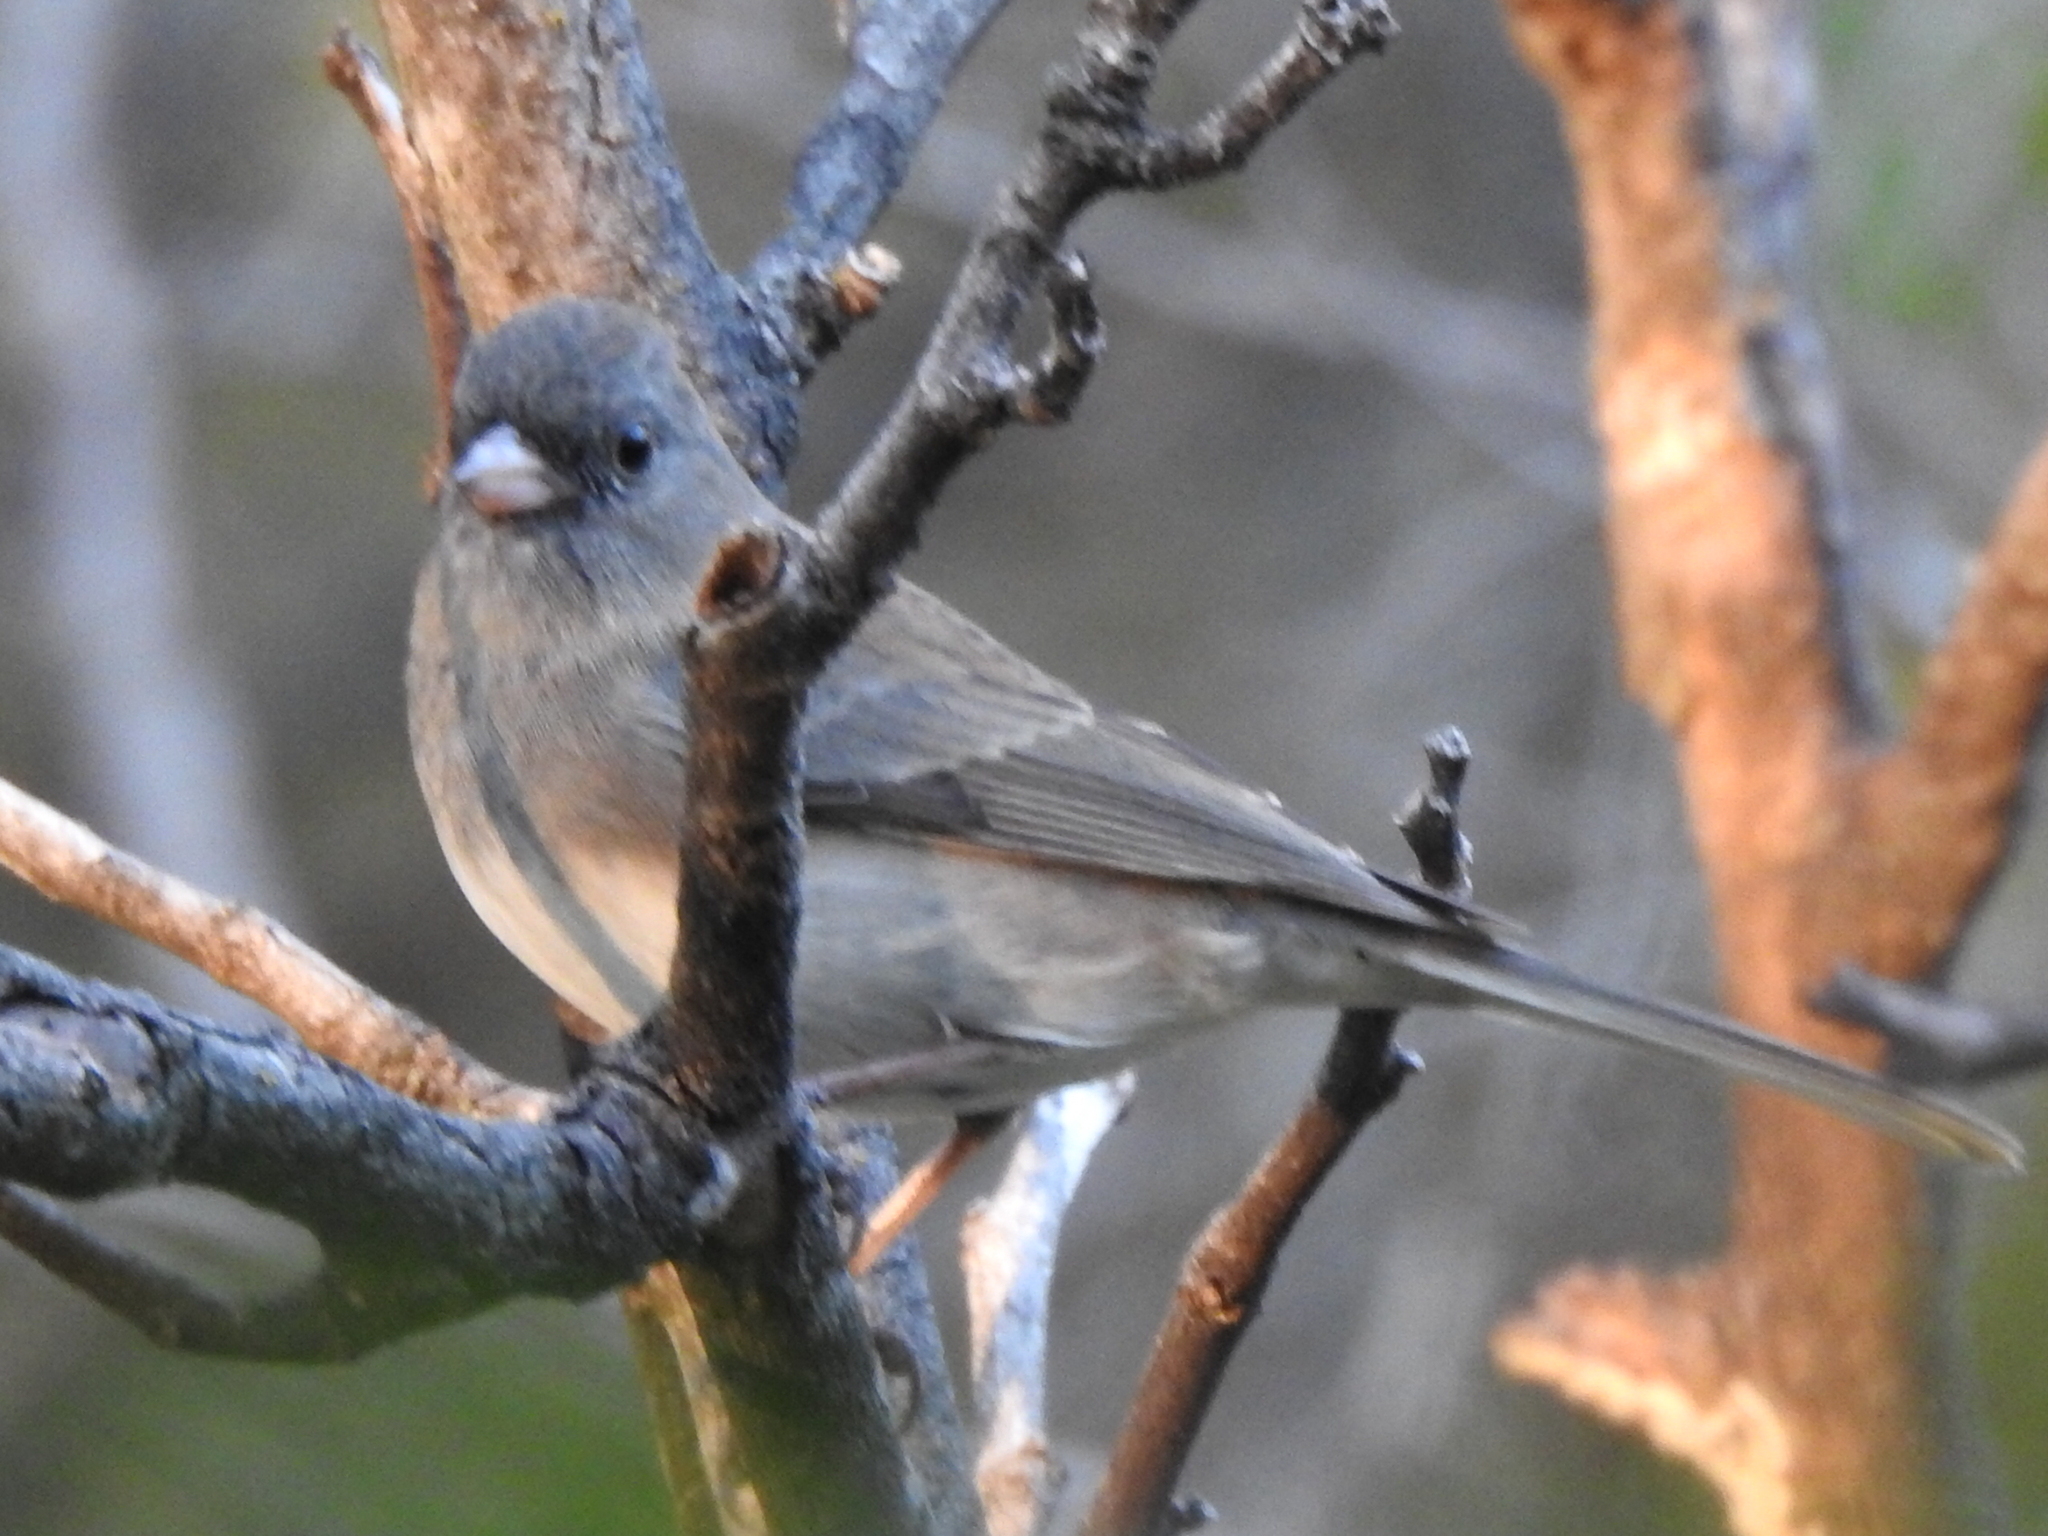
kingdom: Animalia
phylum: Chordata
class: Aves
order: Passeriformes
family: Passerellidae
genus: Junco
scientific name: Junco hyemalis
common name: Dark-eyed junco
